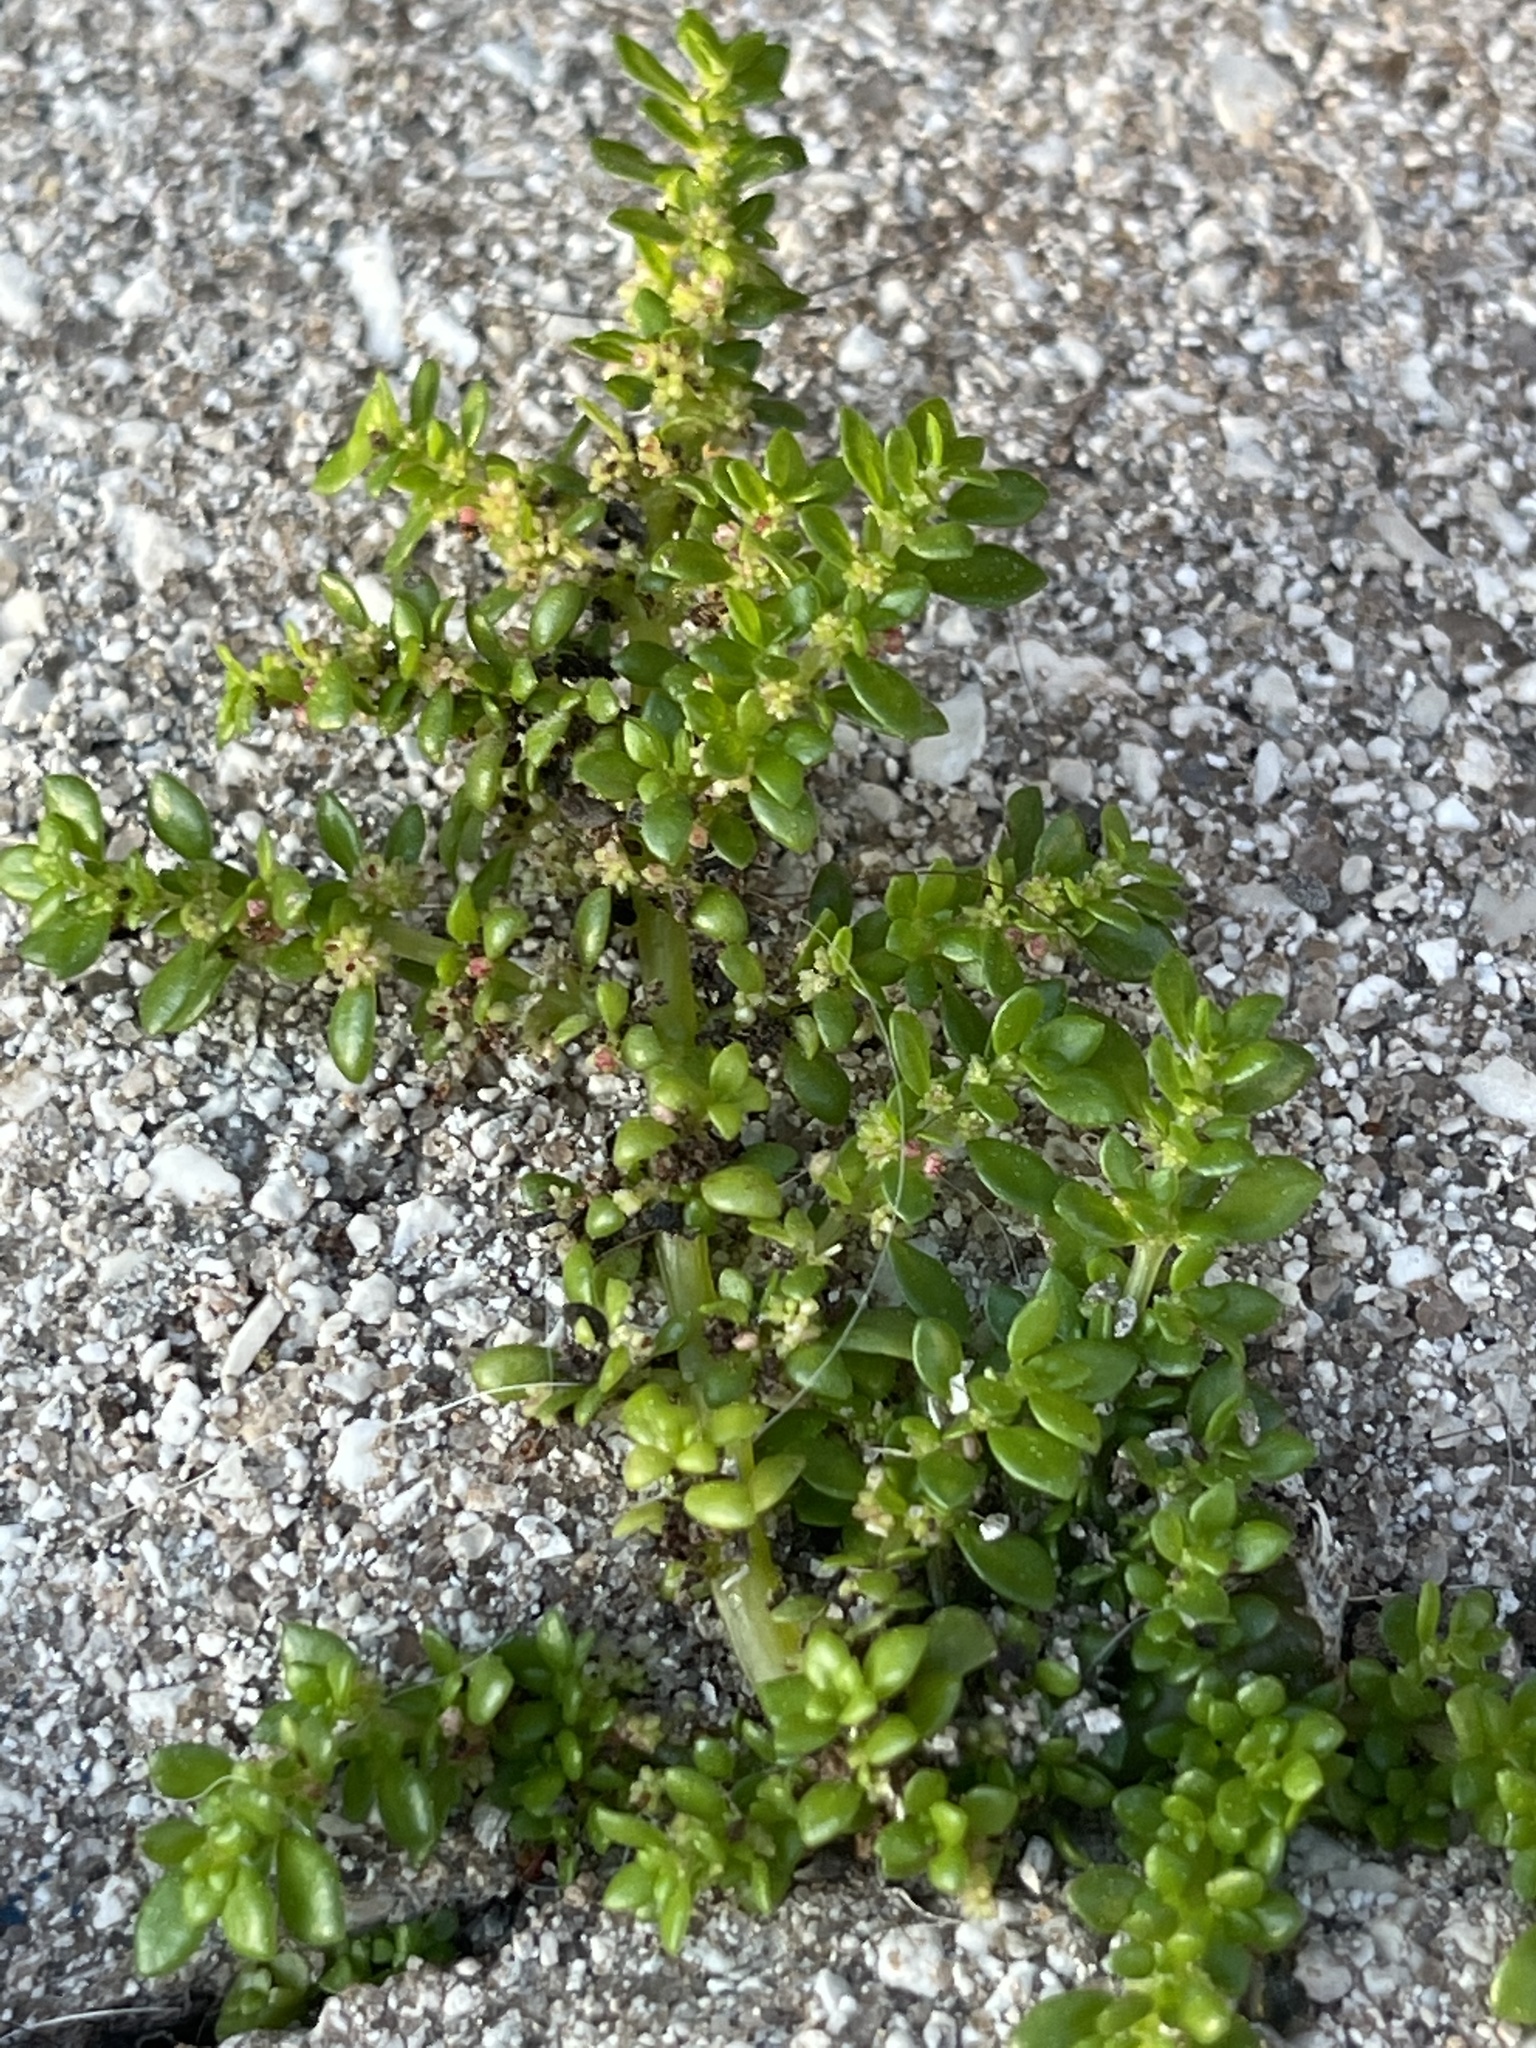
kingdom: Plantae
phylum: Tracheophyta
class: Magnoliopsida
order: Rosales
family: Urticaceae
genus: Pilea
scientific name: Pilea microphylla
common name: Artillery-plant
